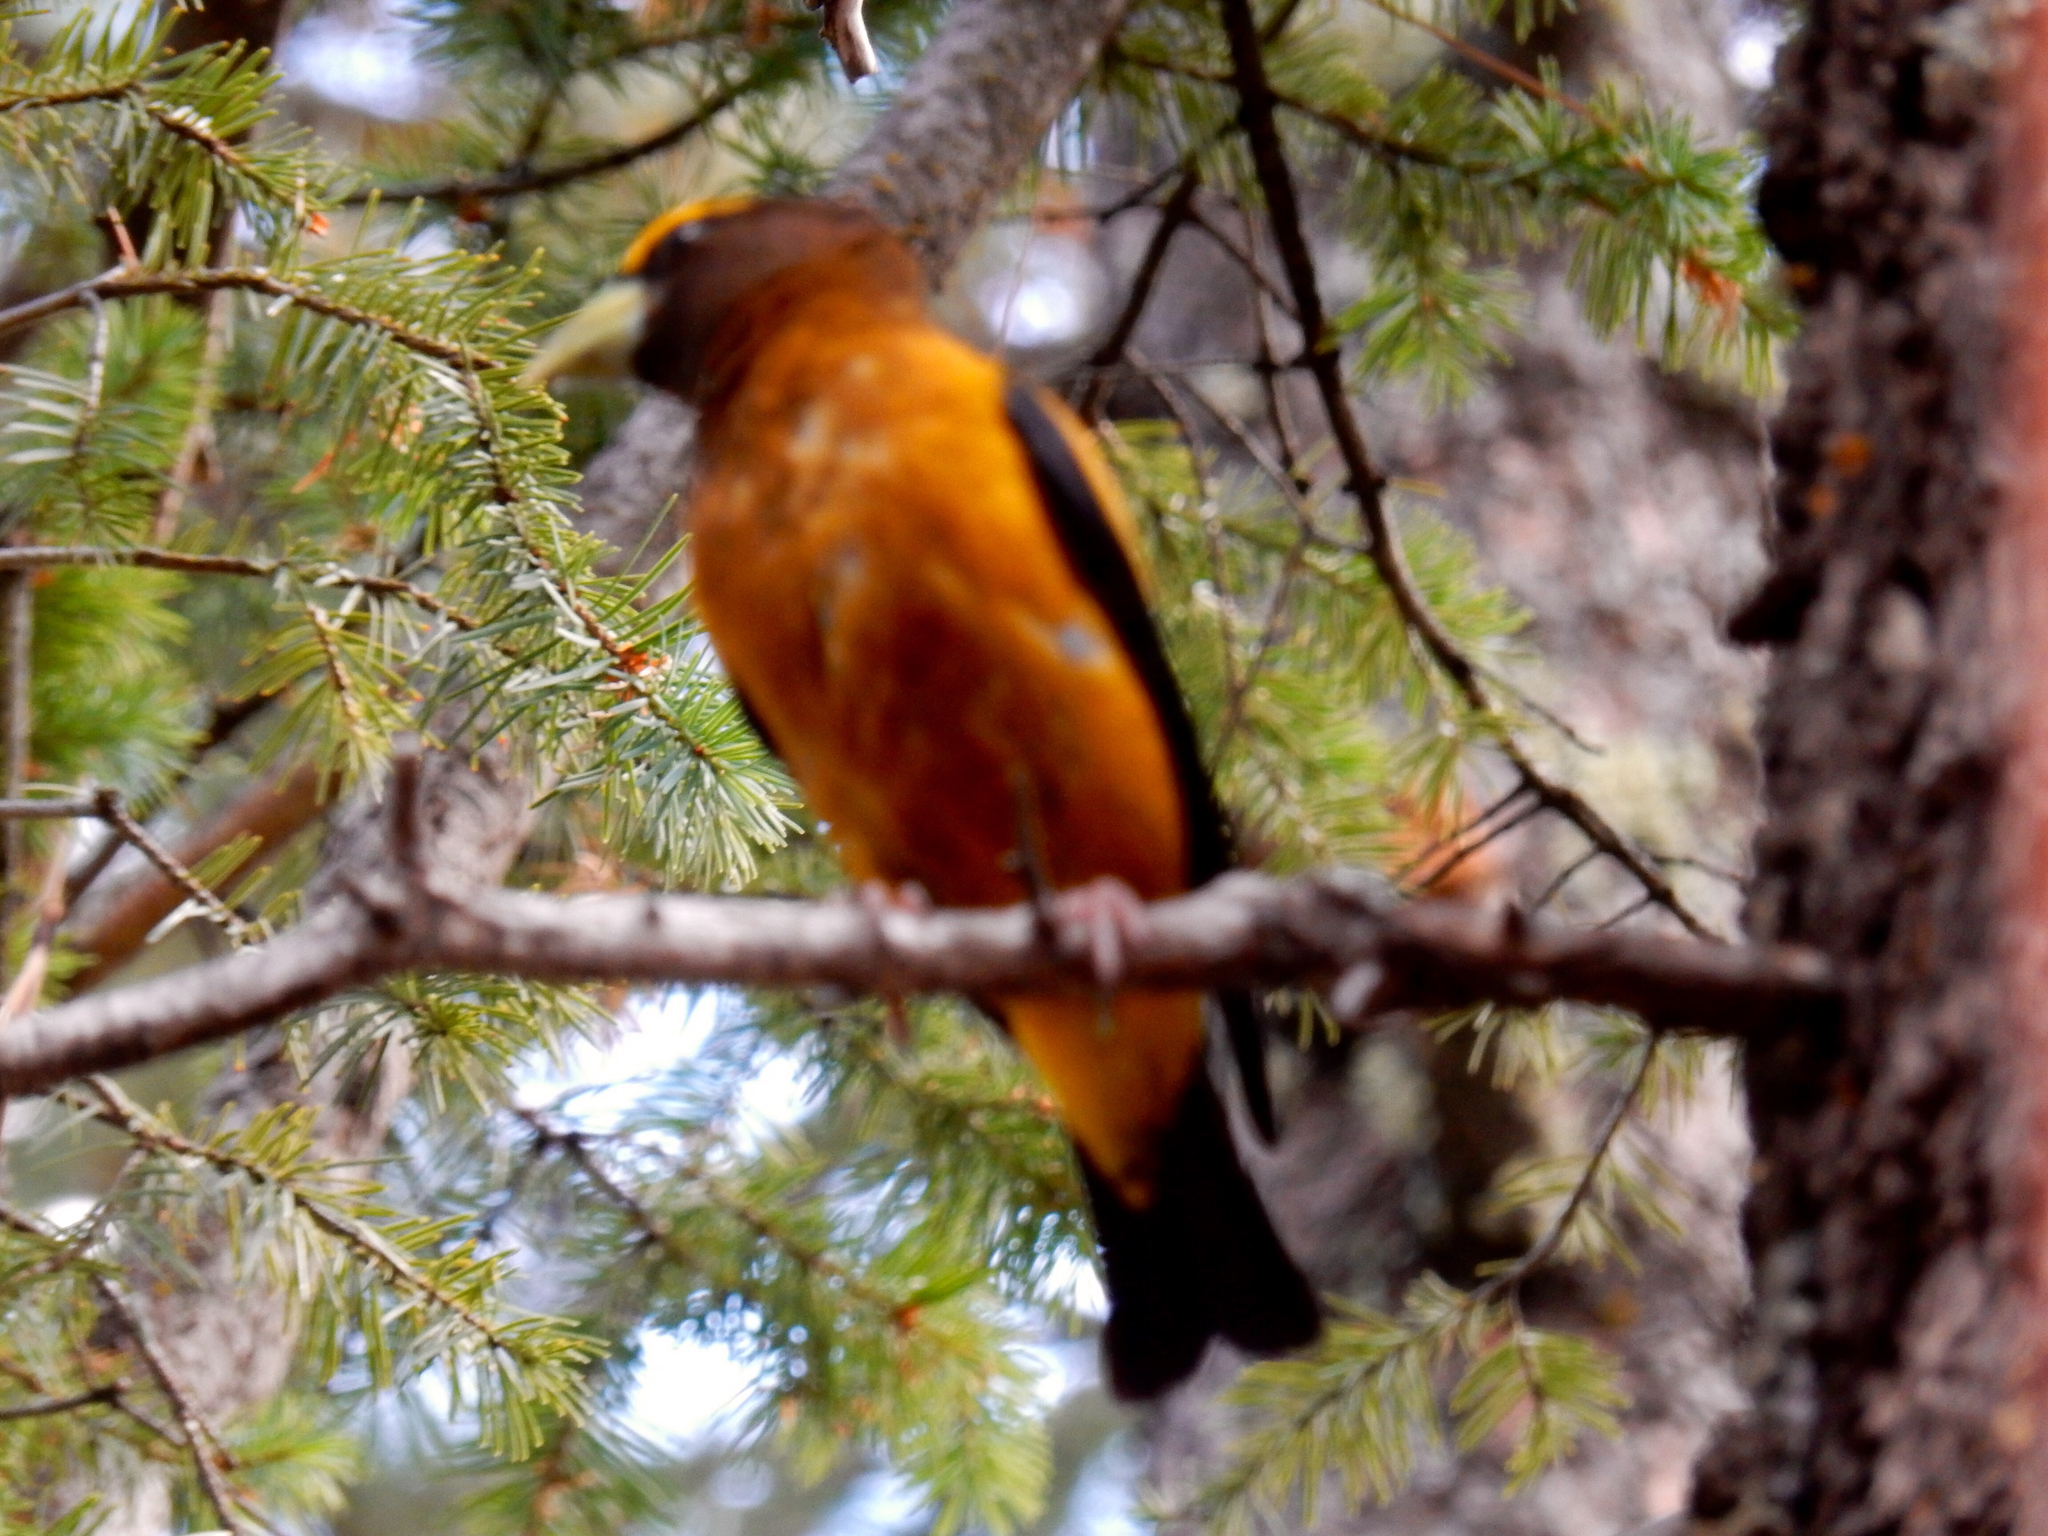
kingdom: Animalia
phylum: Chordata
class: Aves
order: Passeriformes
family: Fringillidae
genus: Hesperiphona
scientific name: Hesperiphona vespertina
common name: Evening grosbeak
